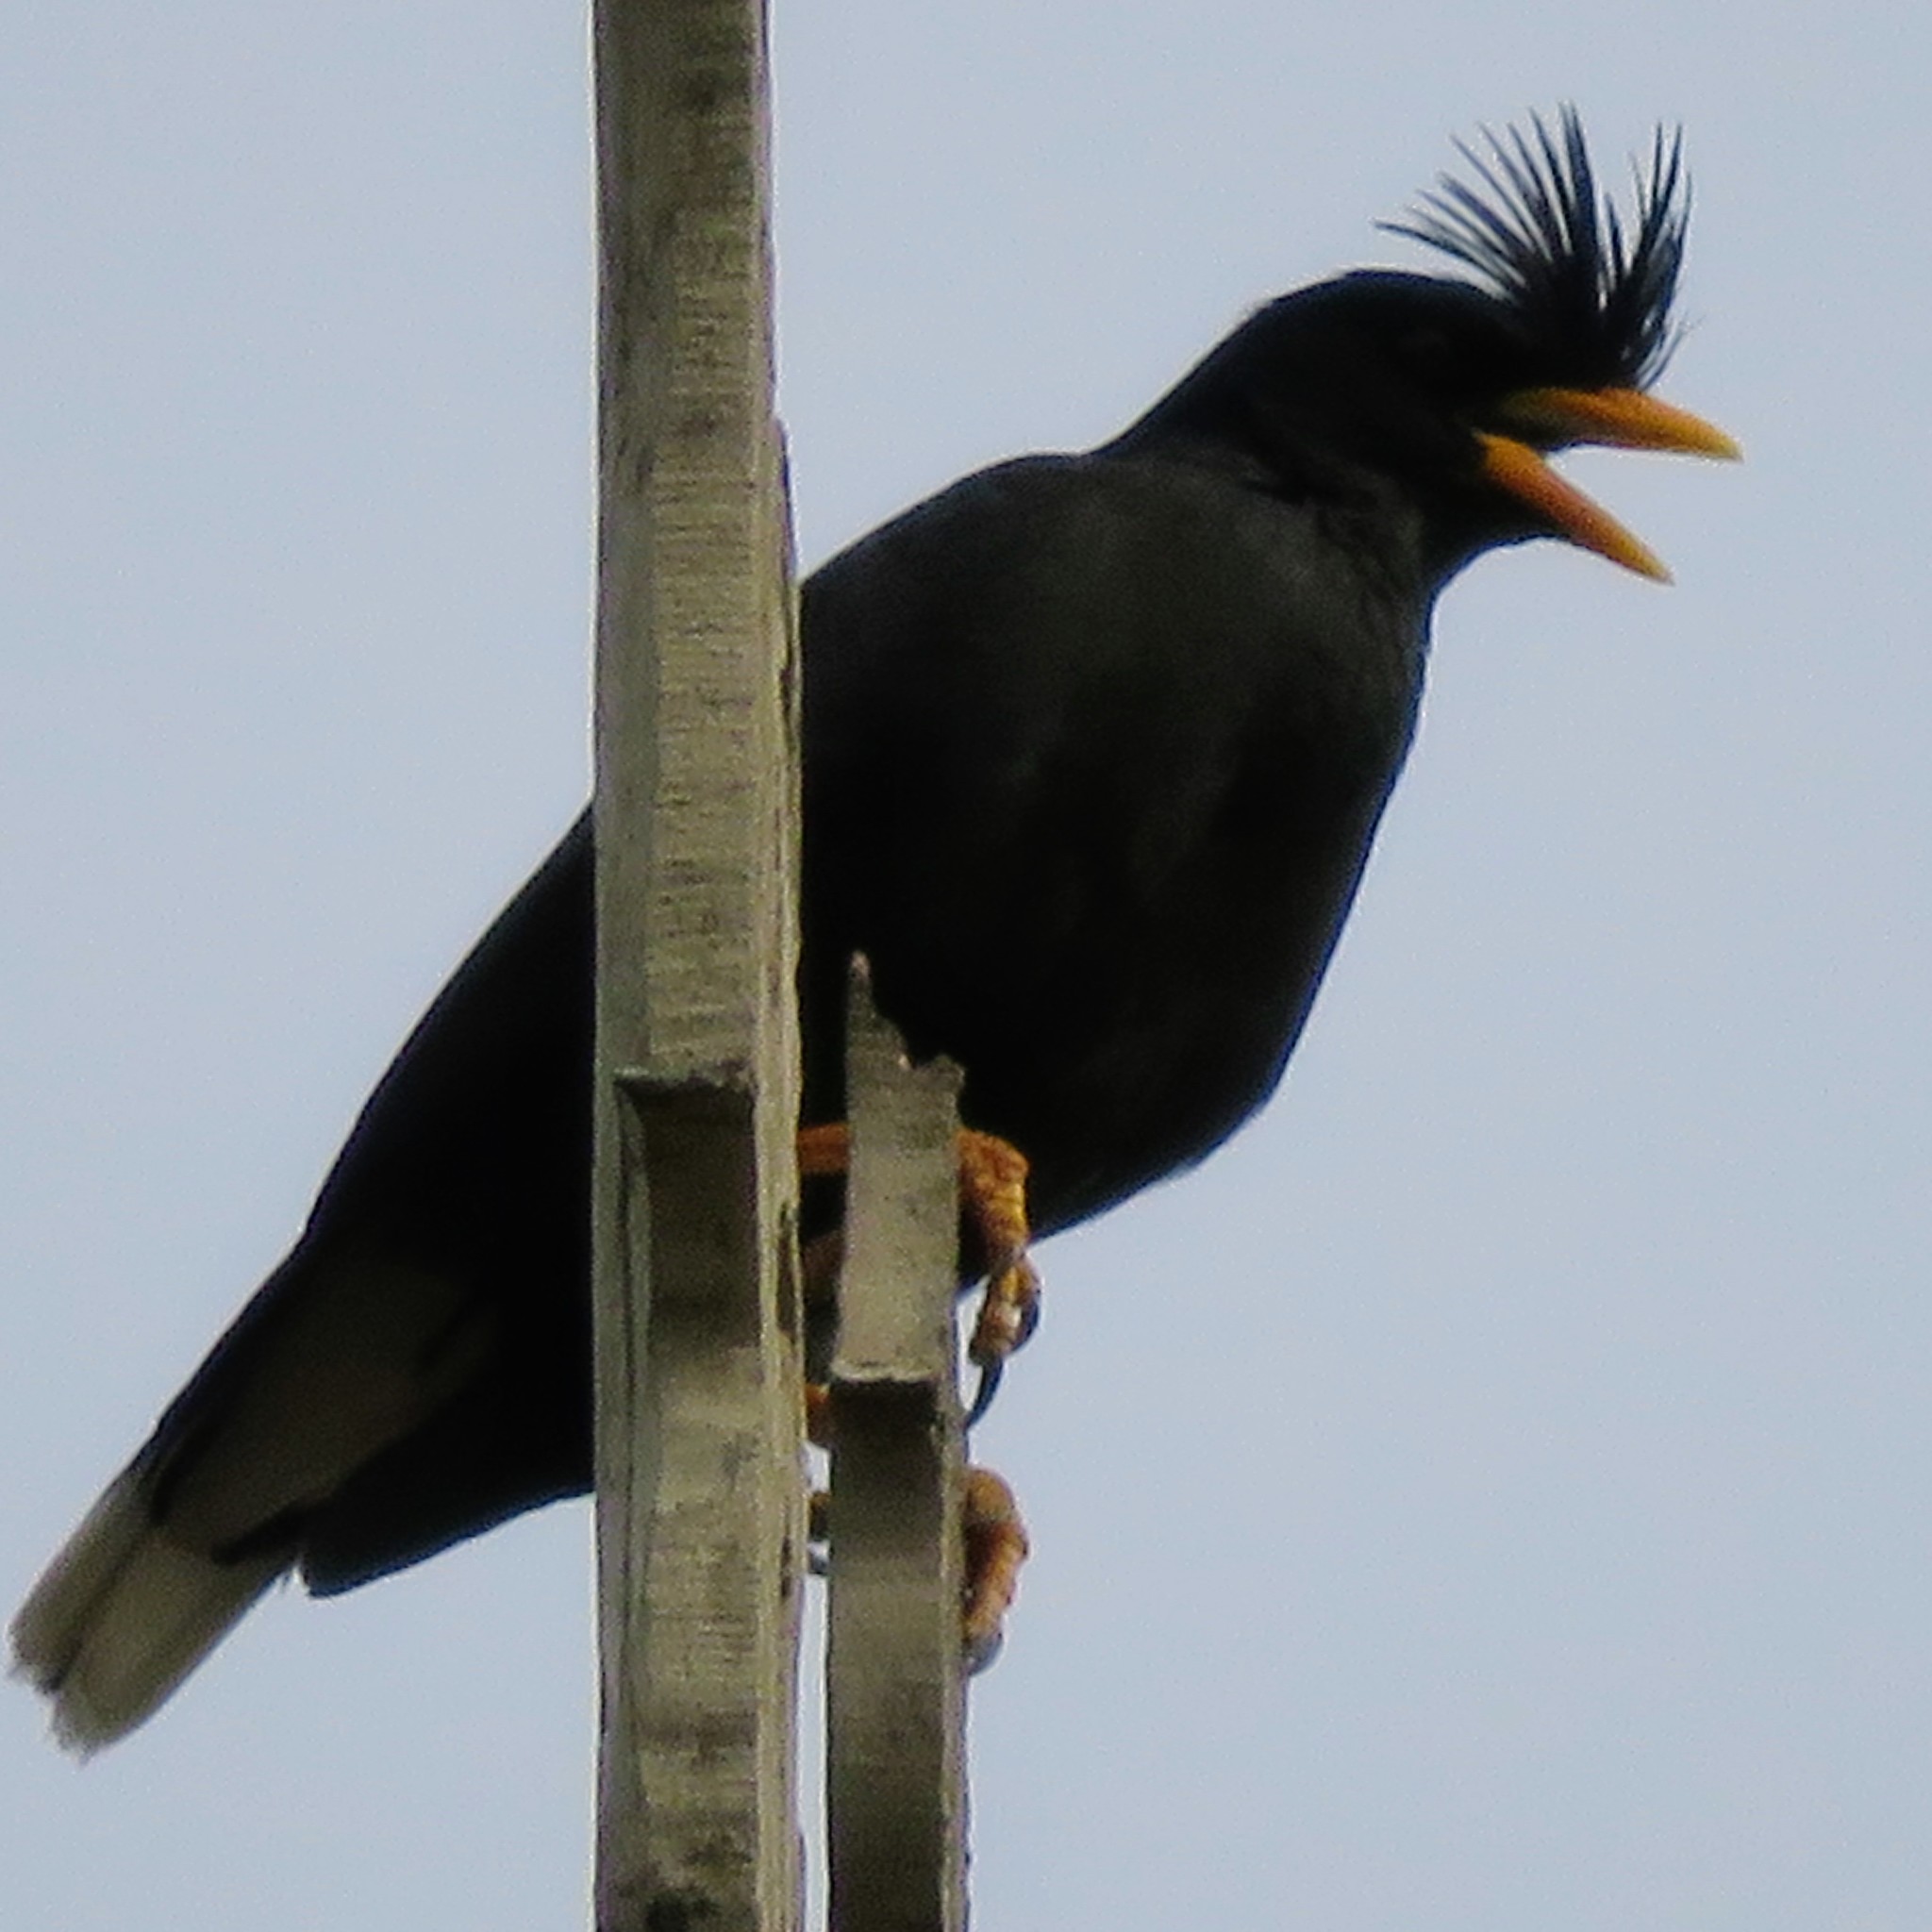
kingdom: Animalia
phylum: Chordata
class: Aves
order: Passeriformes
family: Sturnidae
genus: Acridotheres
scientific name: Acridotheres grandis
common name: Great myna
